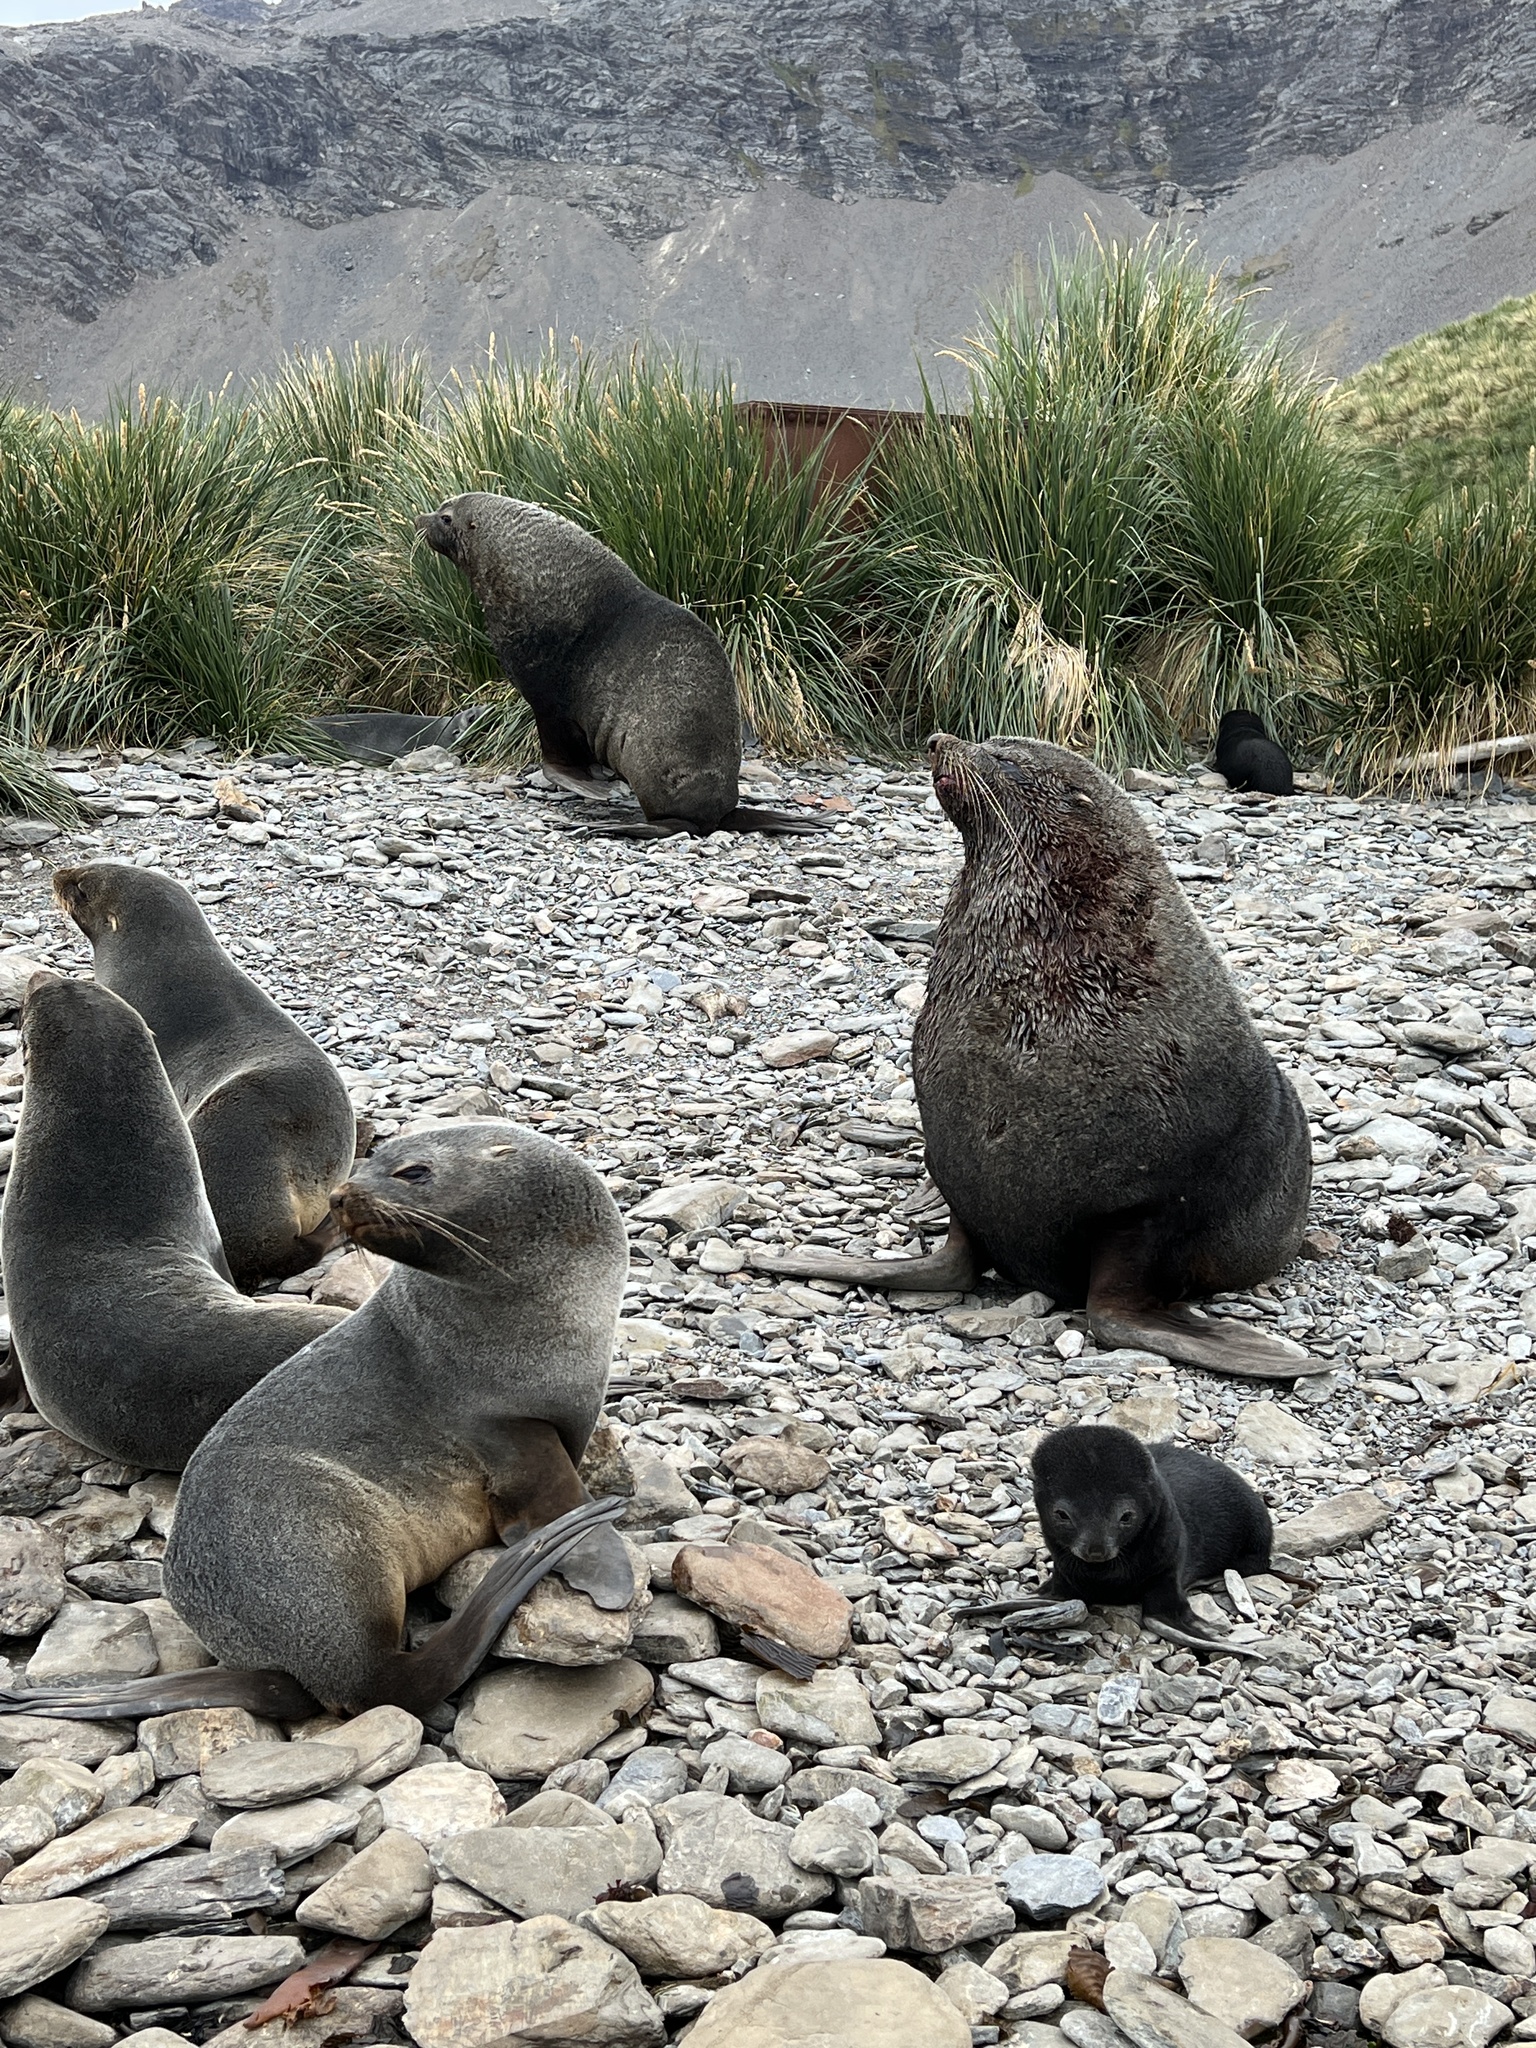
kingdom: Animalia
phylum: Chordata
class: Mammalia
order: Carnivora
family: Otariidae
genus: Arctocephalus
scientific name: Arctocephalus gazella
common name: Antarctic fur seal
